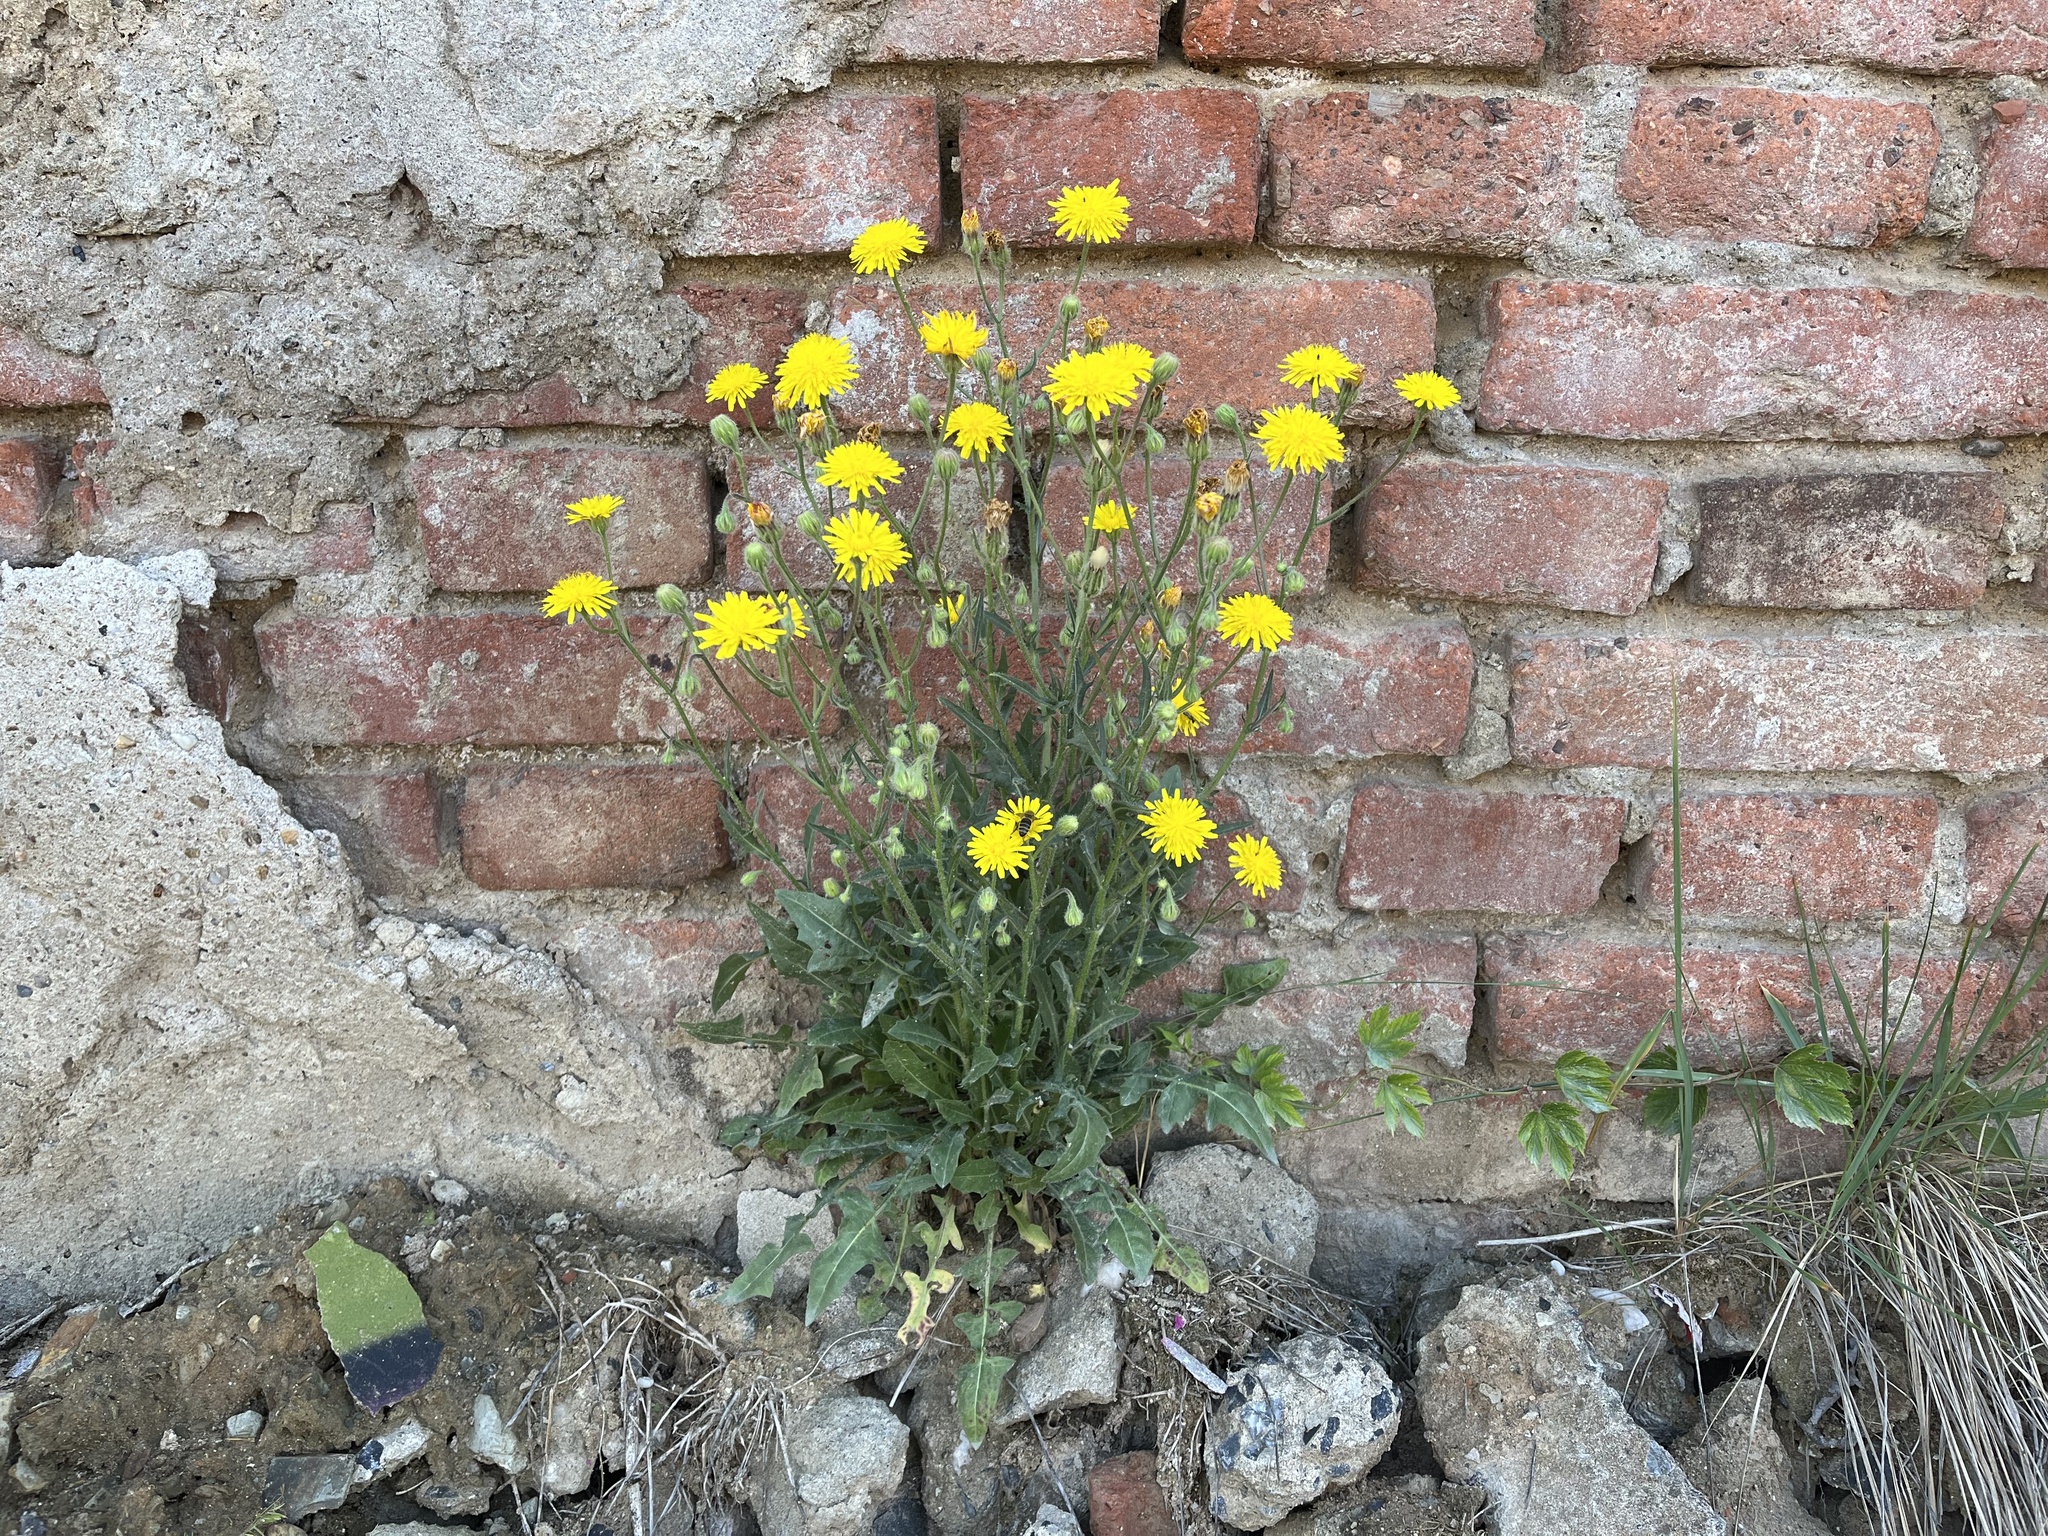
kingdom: Plantae
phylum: Tracheophyta
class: Magnoliopsida
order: Asterales
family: Asteraceae
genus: Crepis
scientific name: Crepis foetida
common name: Stinking hawk's-beard
